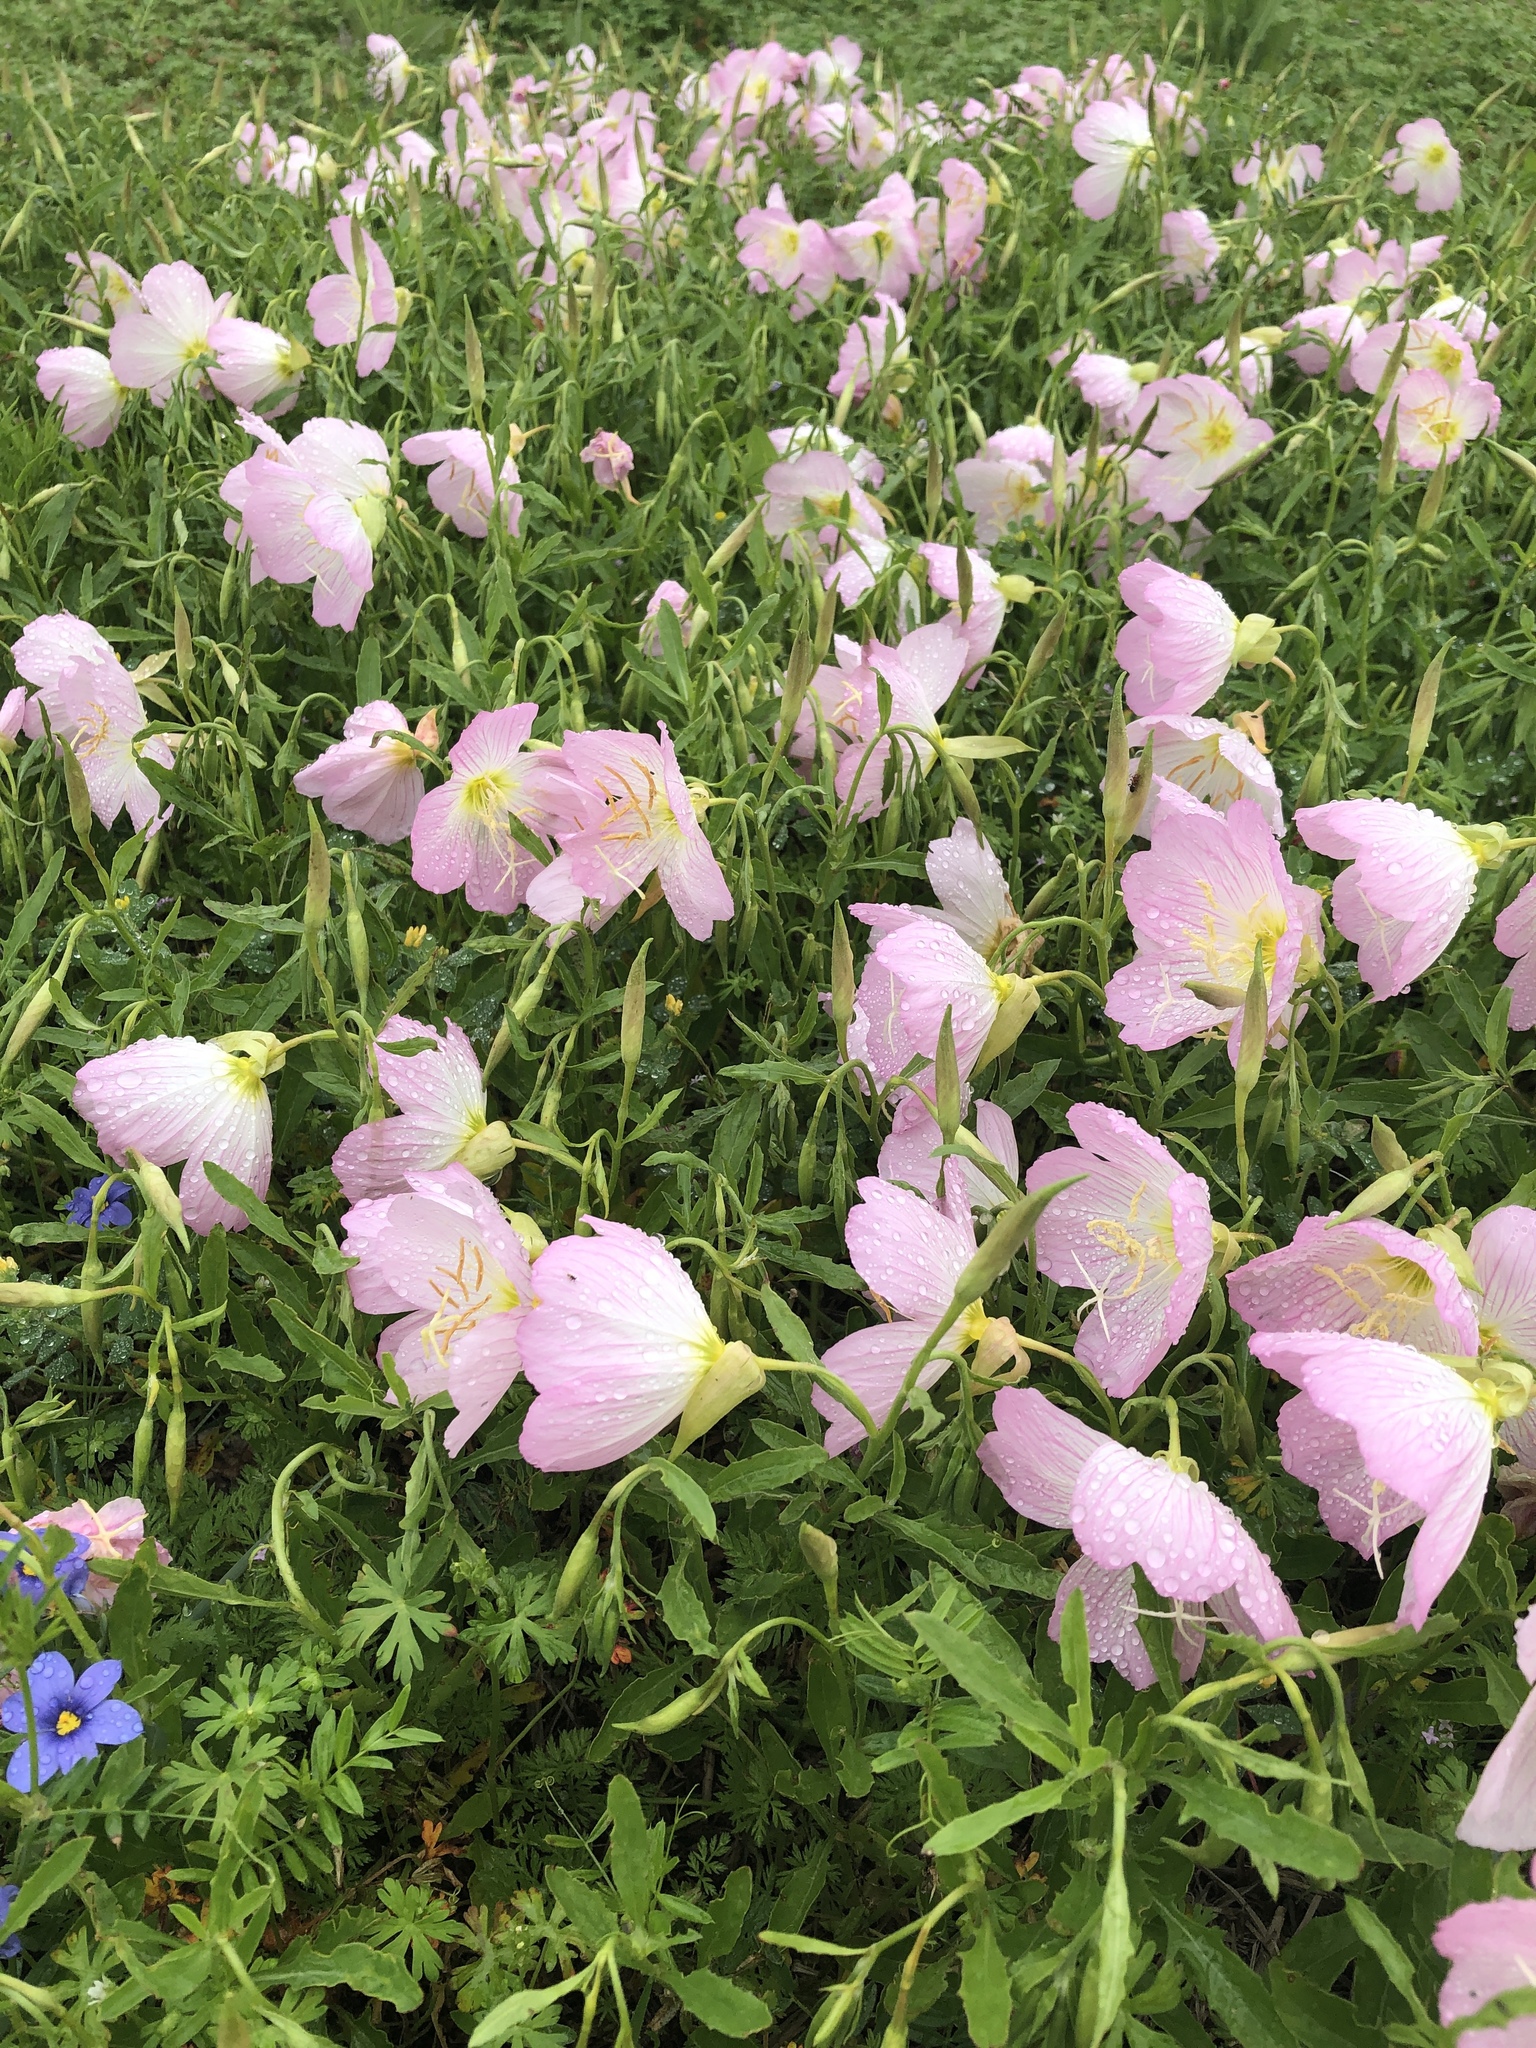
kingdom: Plantae
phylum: Tracheophyta
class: Magnoliopsida
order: Myrtales
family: Onagraceae
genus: Oenothera
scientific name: Oenothera speciosa
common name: White evening-primrose
